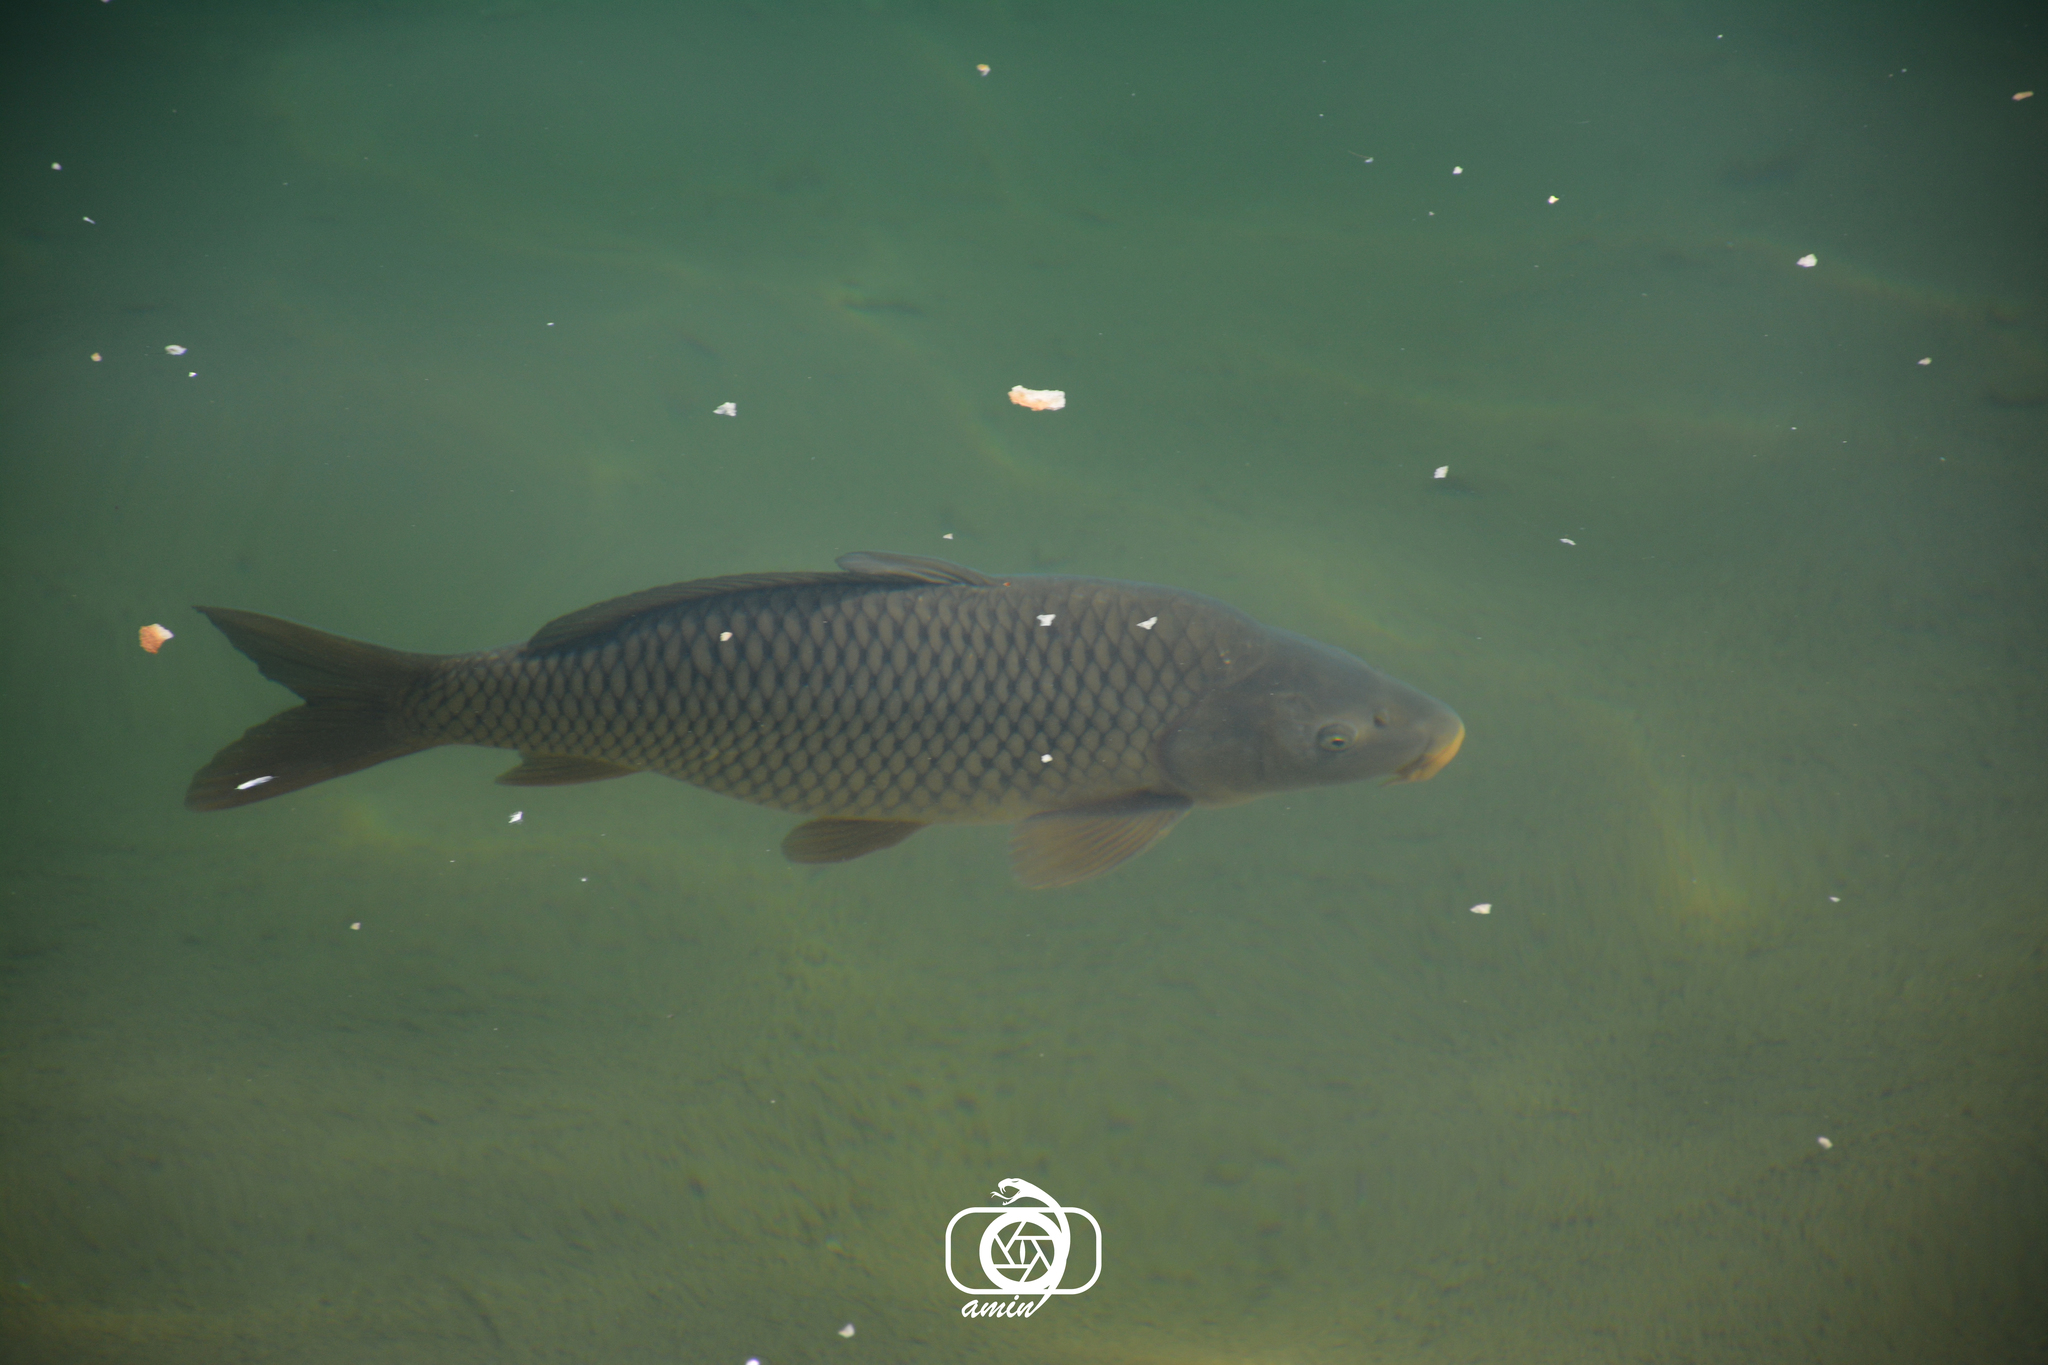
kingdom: Animalia
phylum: Chordata
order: Cypriniformes
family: Cyprinidae
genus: Cyprinus
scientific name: Cyprinus carpio
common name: Common carp
